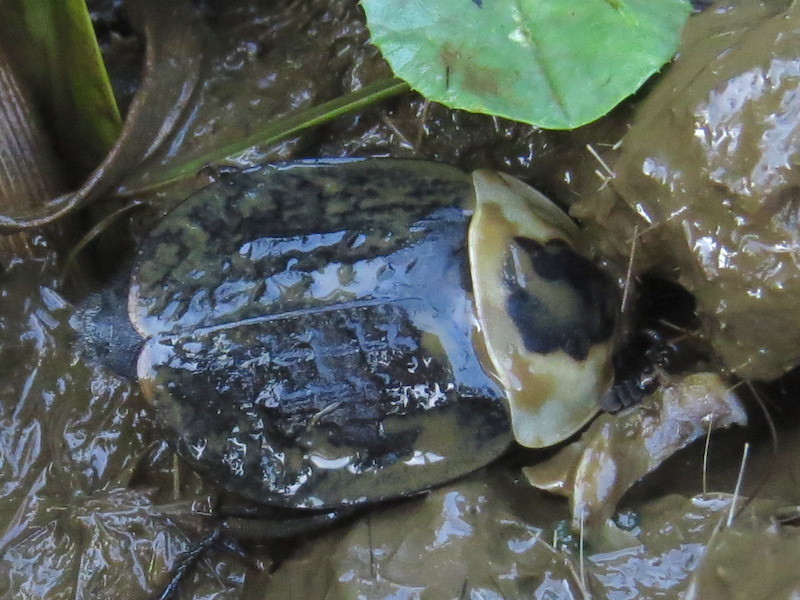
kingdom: Animalia
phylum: Arthropoda
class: Insecta
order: Coleoptera
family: Staphylinidae
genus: Necrophila
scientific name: Necrophila americana
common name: American carrion beetle
